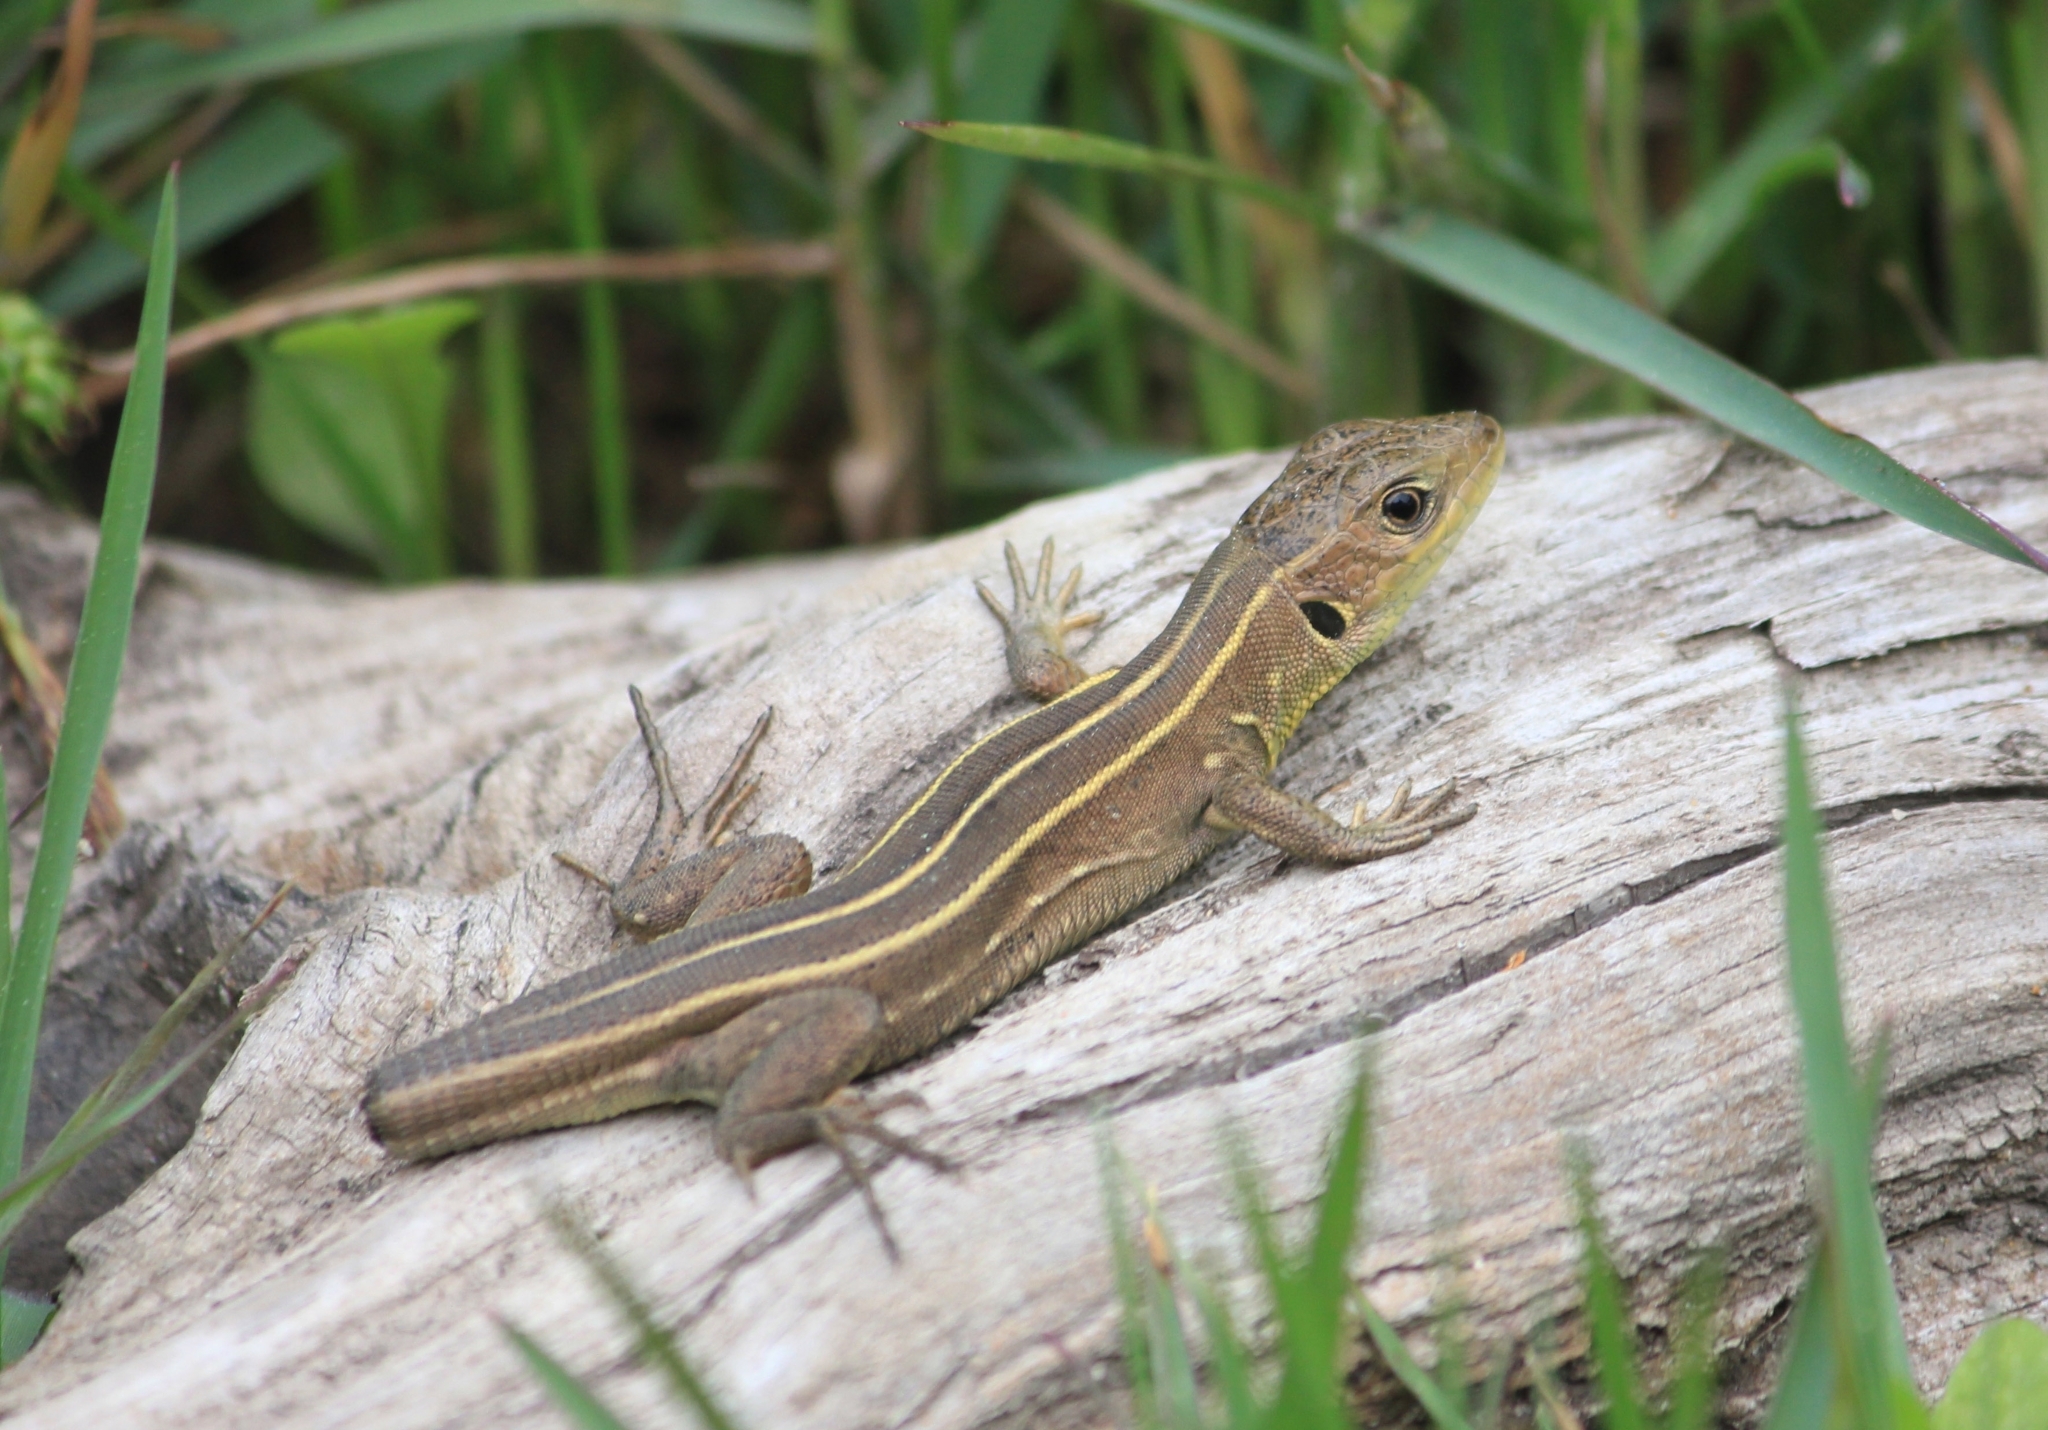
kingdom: Animalia
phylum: Chordata
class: Squamata
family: Lacertidae
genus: Lacerta
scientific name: Lacerta trilineata
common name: Balkan green lizard
